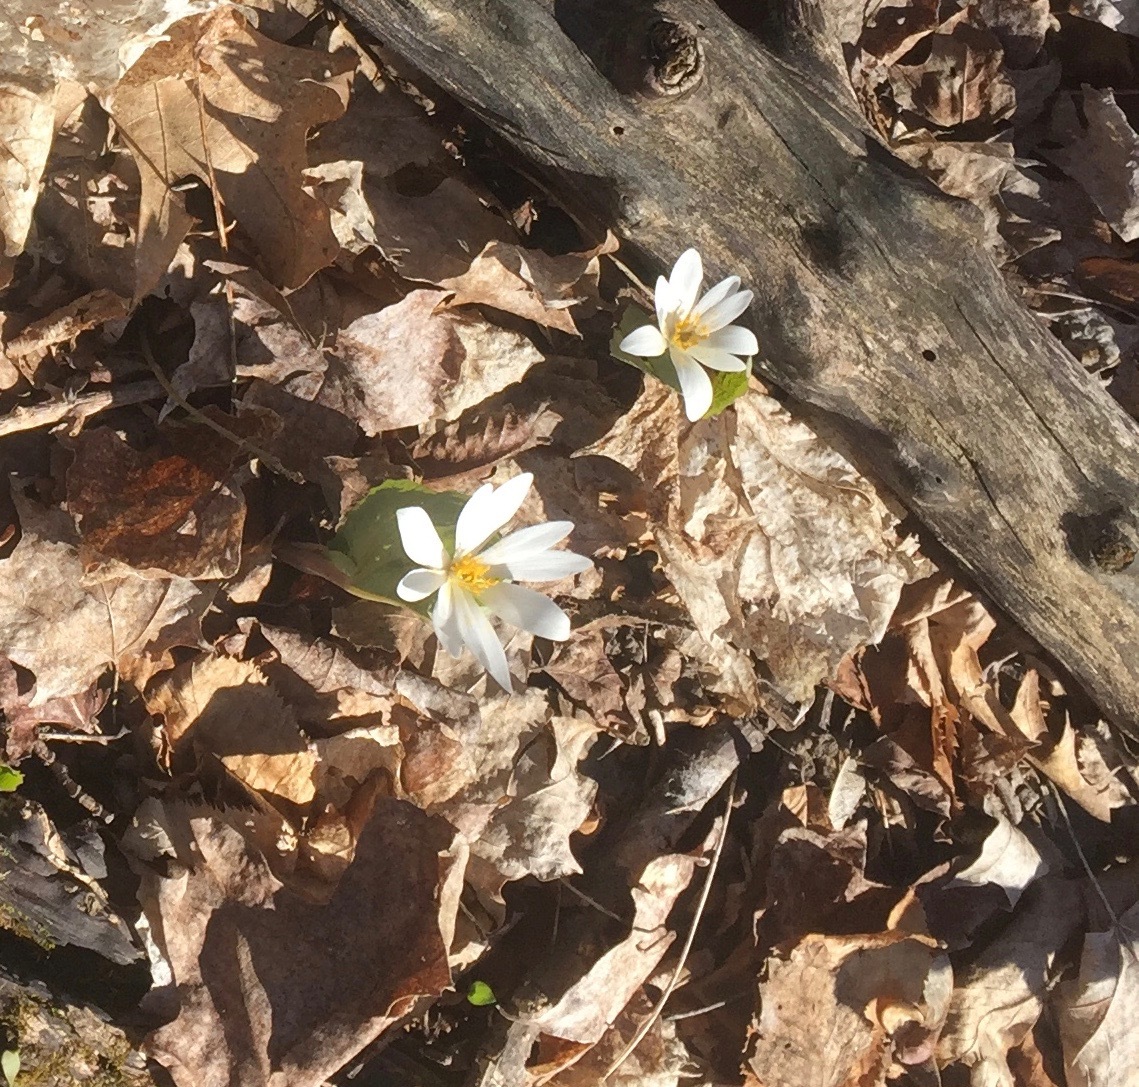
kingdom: Plantae
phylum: Tracheophyta
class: Magnoliopsida
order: Ranunculales
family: Papaveraceae
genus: Sanguinaria
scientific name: Sanguinaria canadensis
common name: Bloodroot
